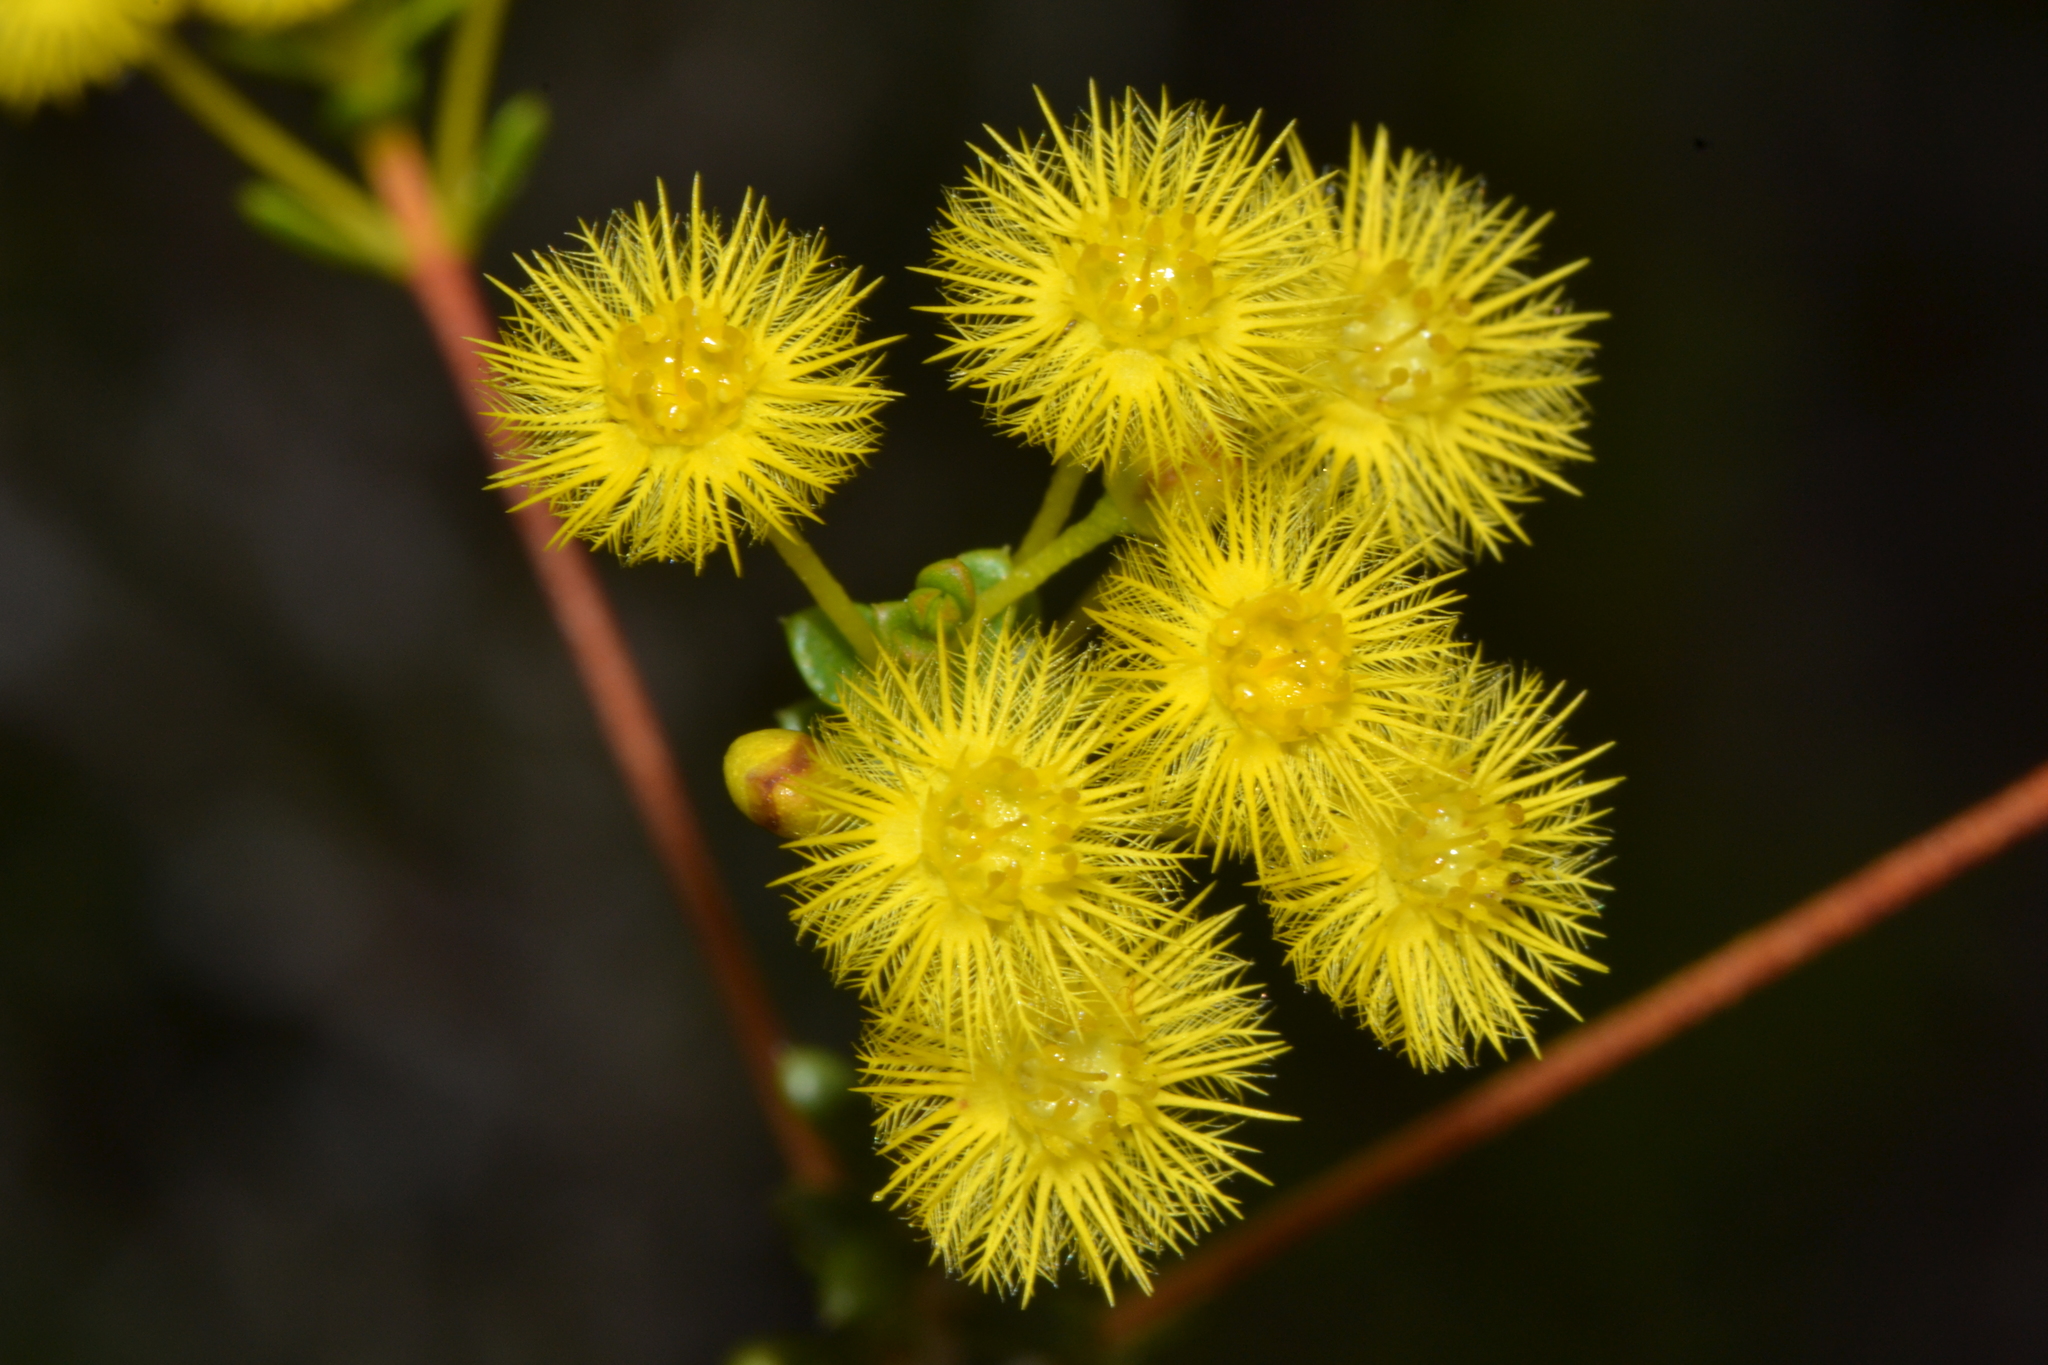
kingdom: Plantae
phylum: Tracheophyta
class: Magnoliopsida
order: Myrtales
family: Myrtaceae
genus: Verticordia
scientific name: Verticordia acerosa
